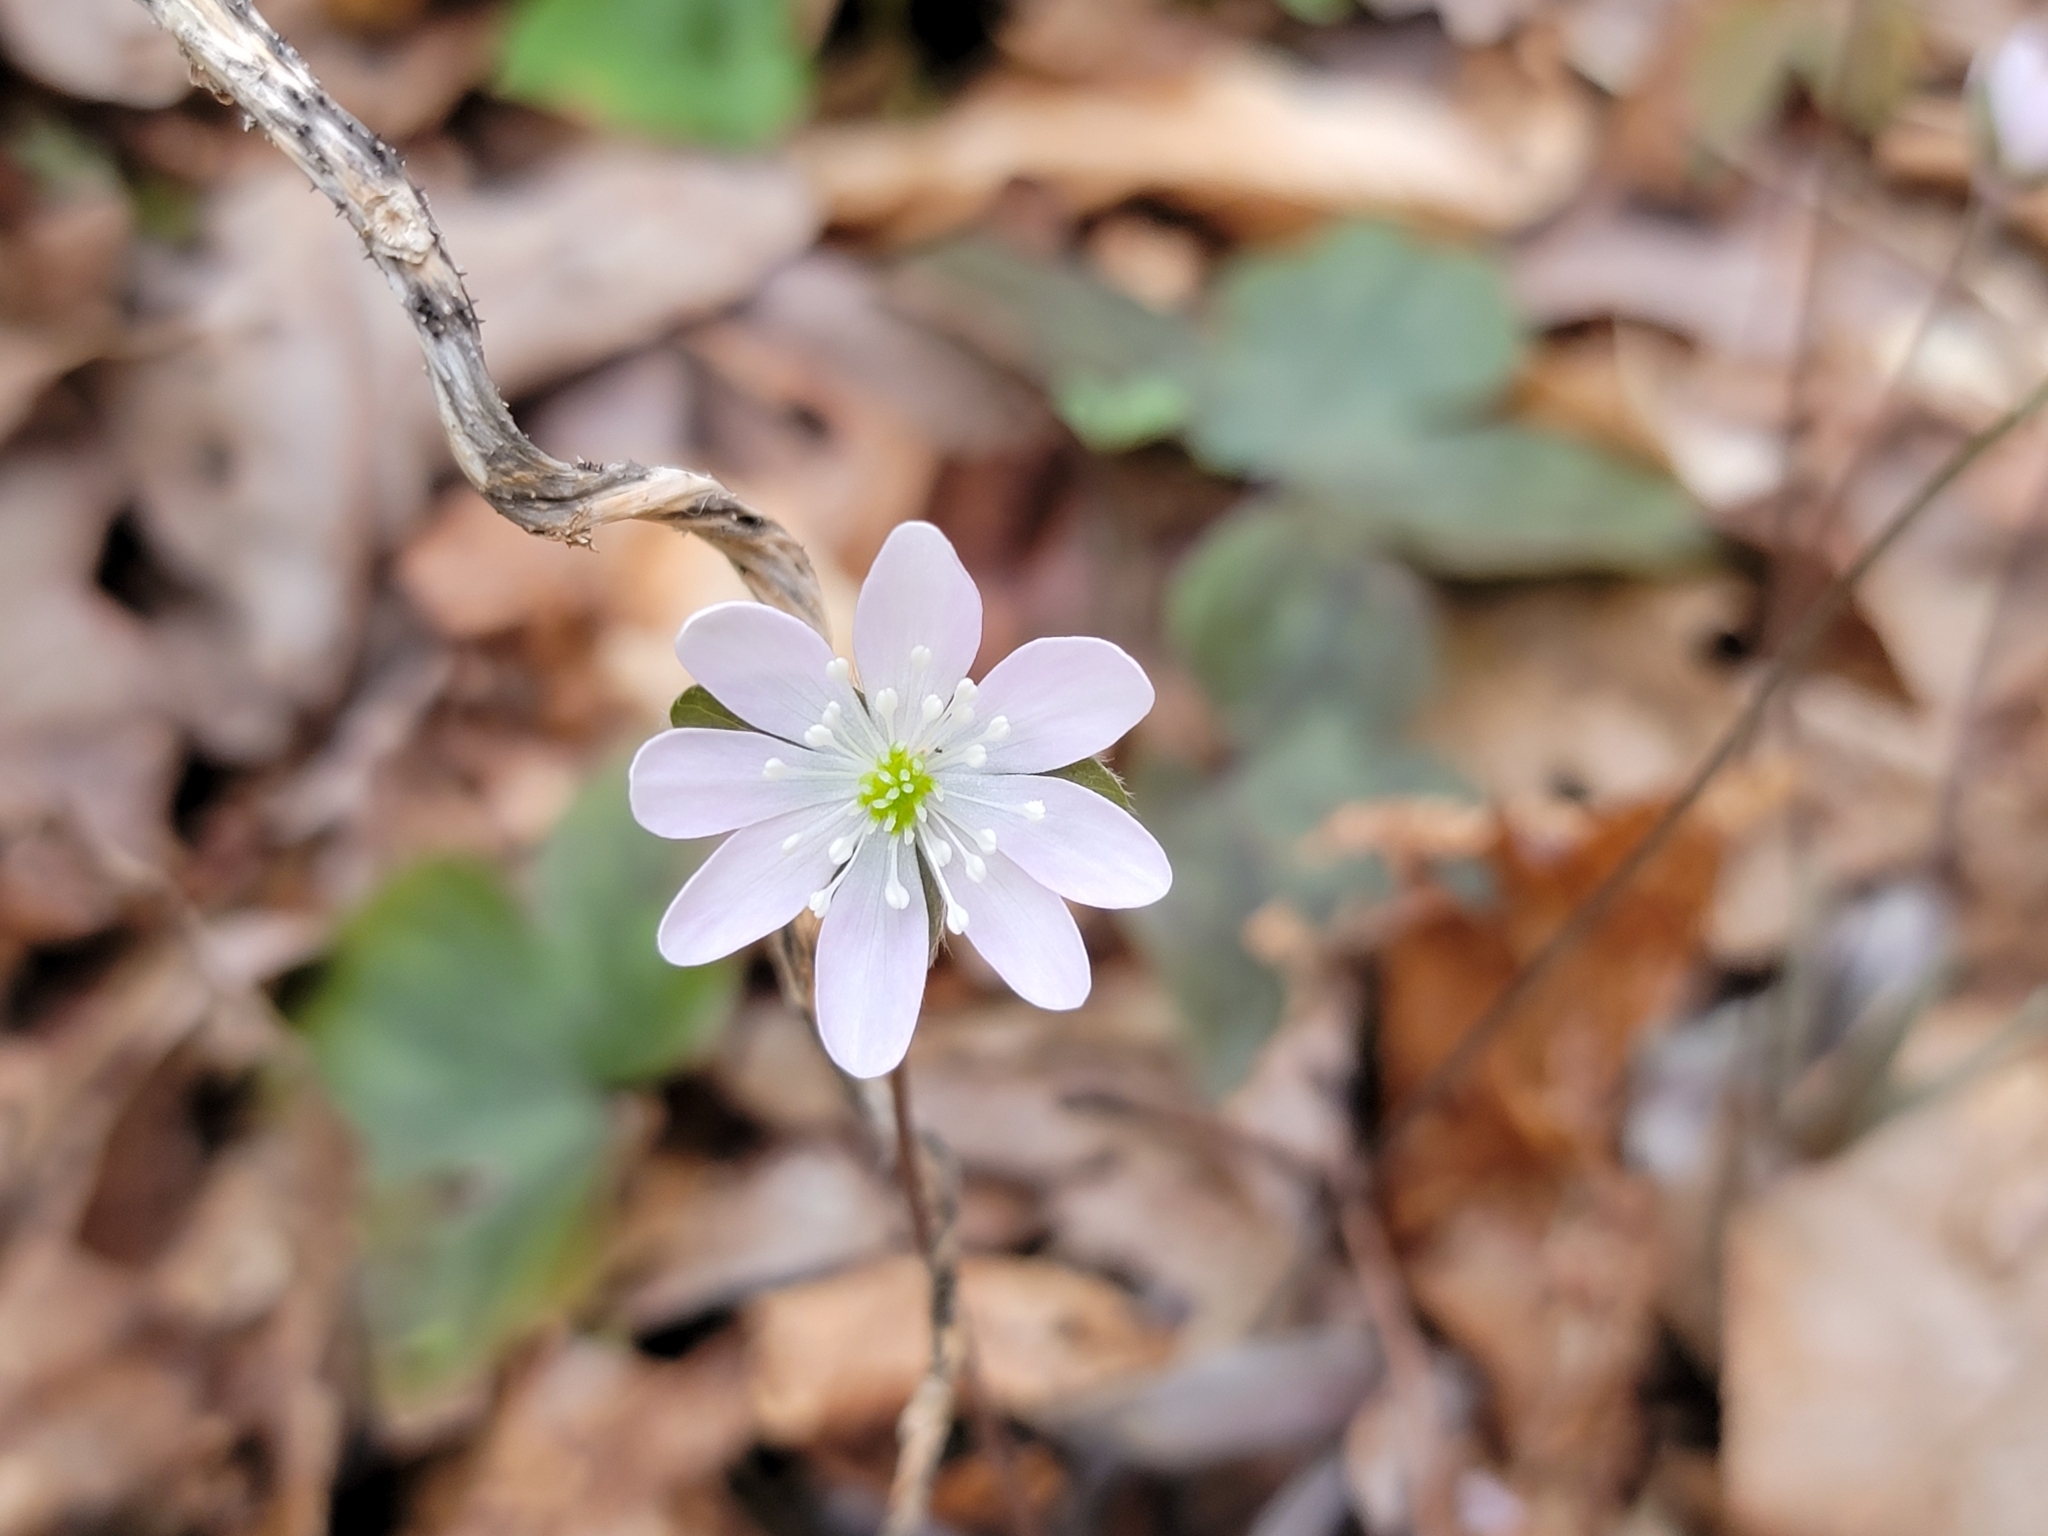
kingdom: Plantae
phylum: Tracheophyta
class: Magnoliopsida
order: Ranunculales
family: Ranunculaceae
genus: Hepatica
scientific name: Hepatica acutiloba
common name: Sharp-lobed hepatica
